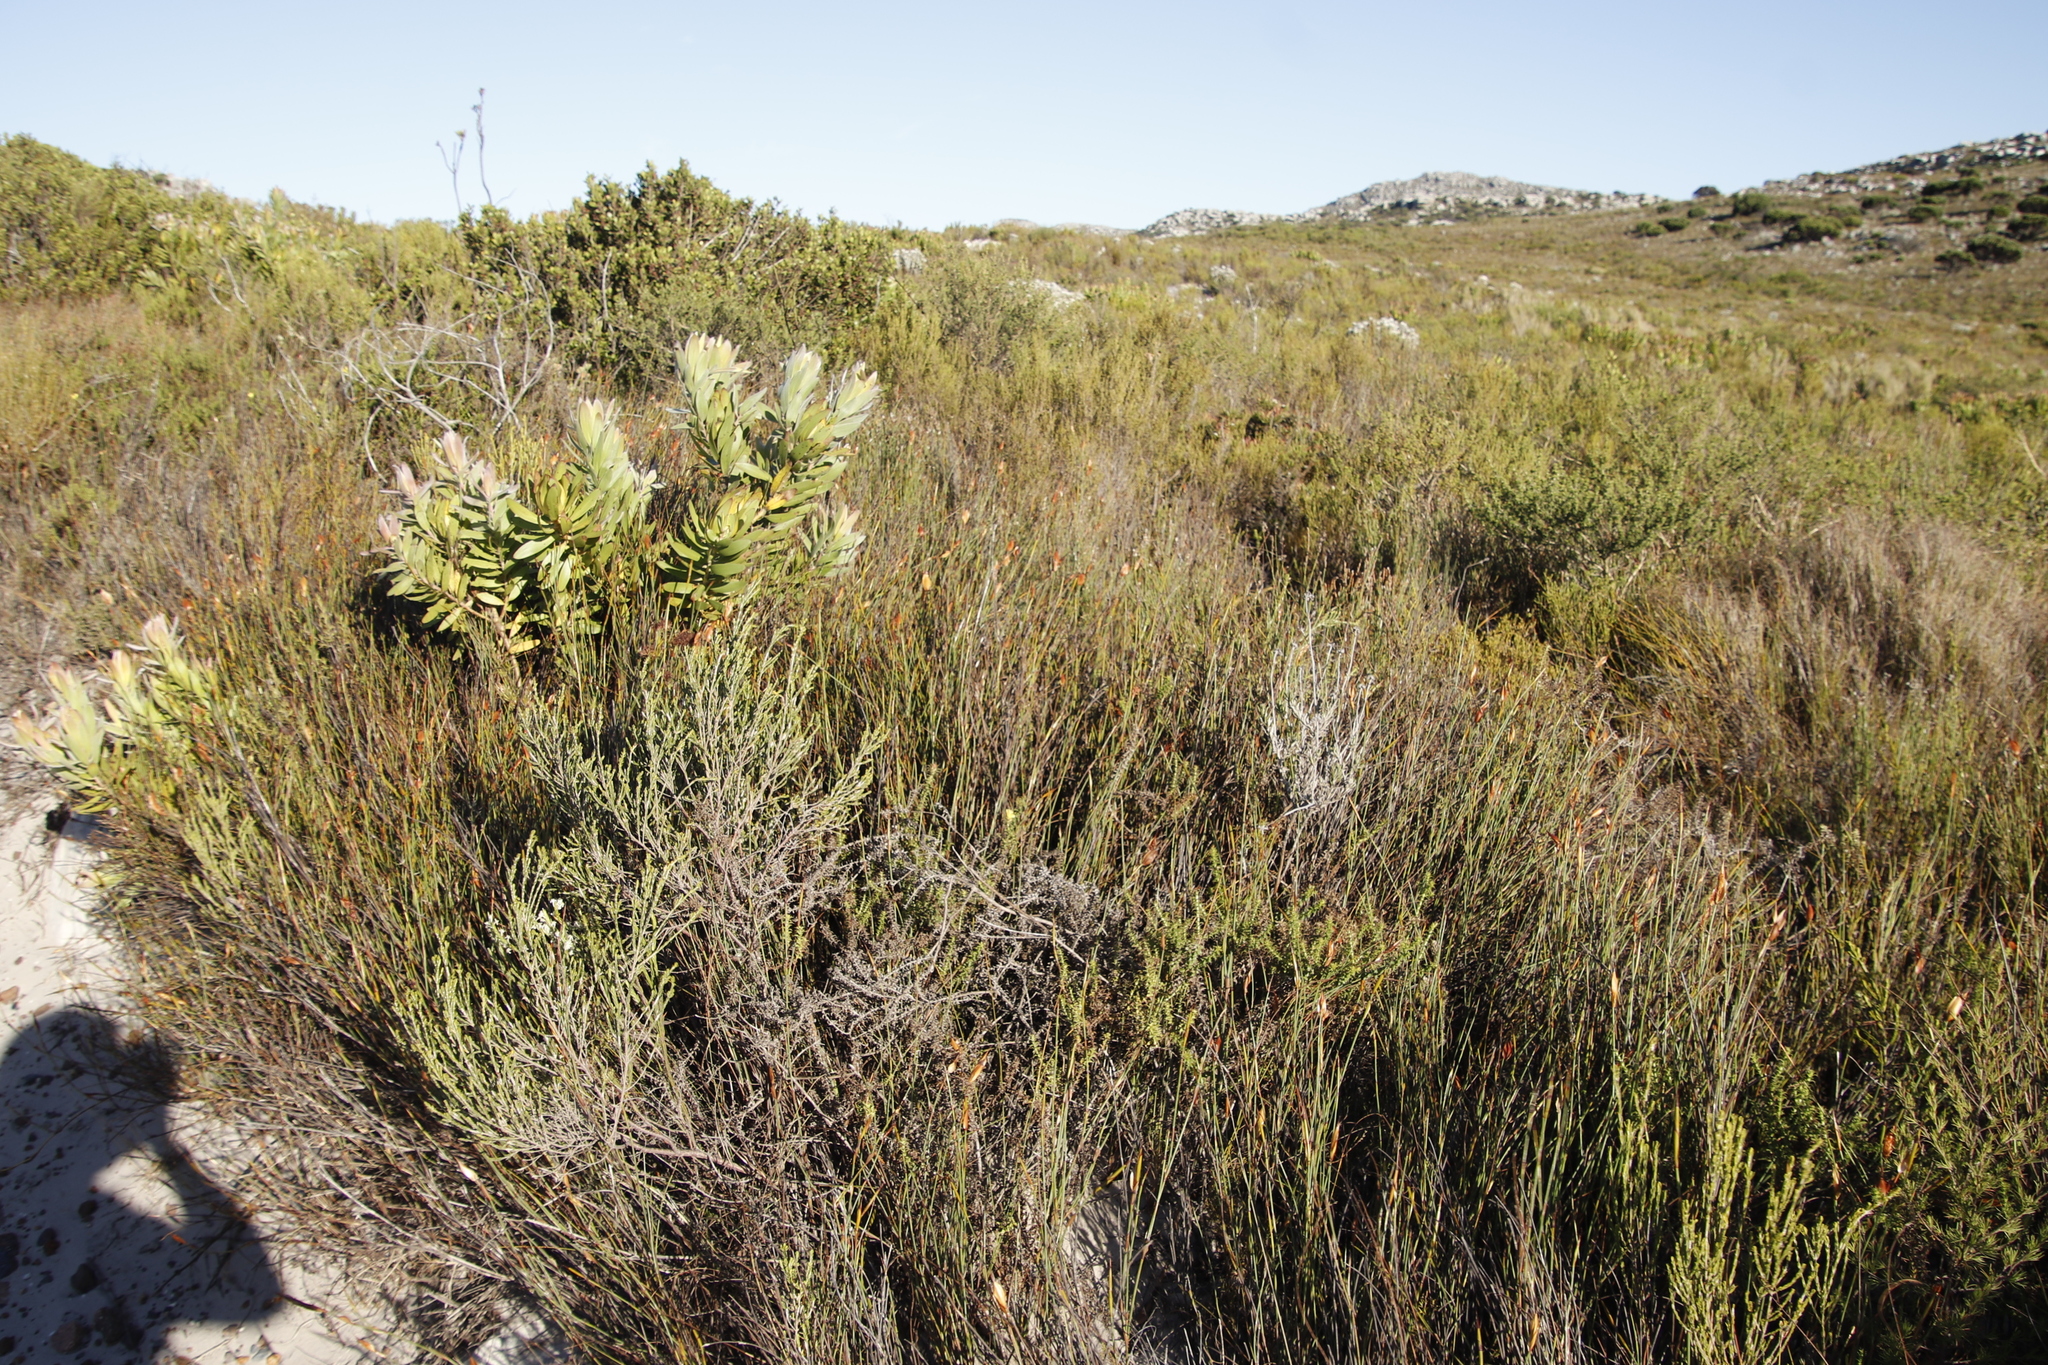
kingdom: Plantae
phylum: Tracheophyta
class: Liliopsida
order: Poales
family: Restionaceae
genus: Willdenowia
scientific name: Willdenowia glomerata
